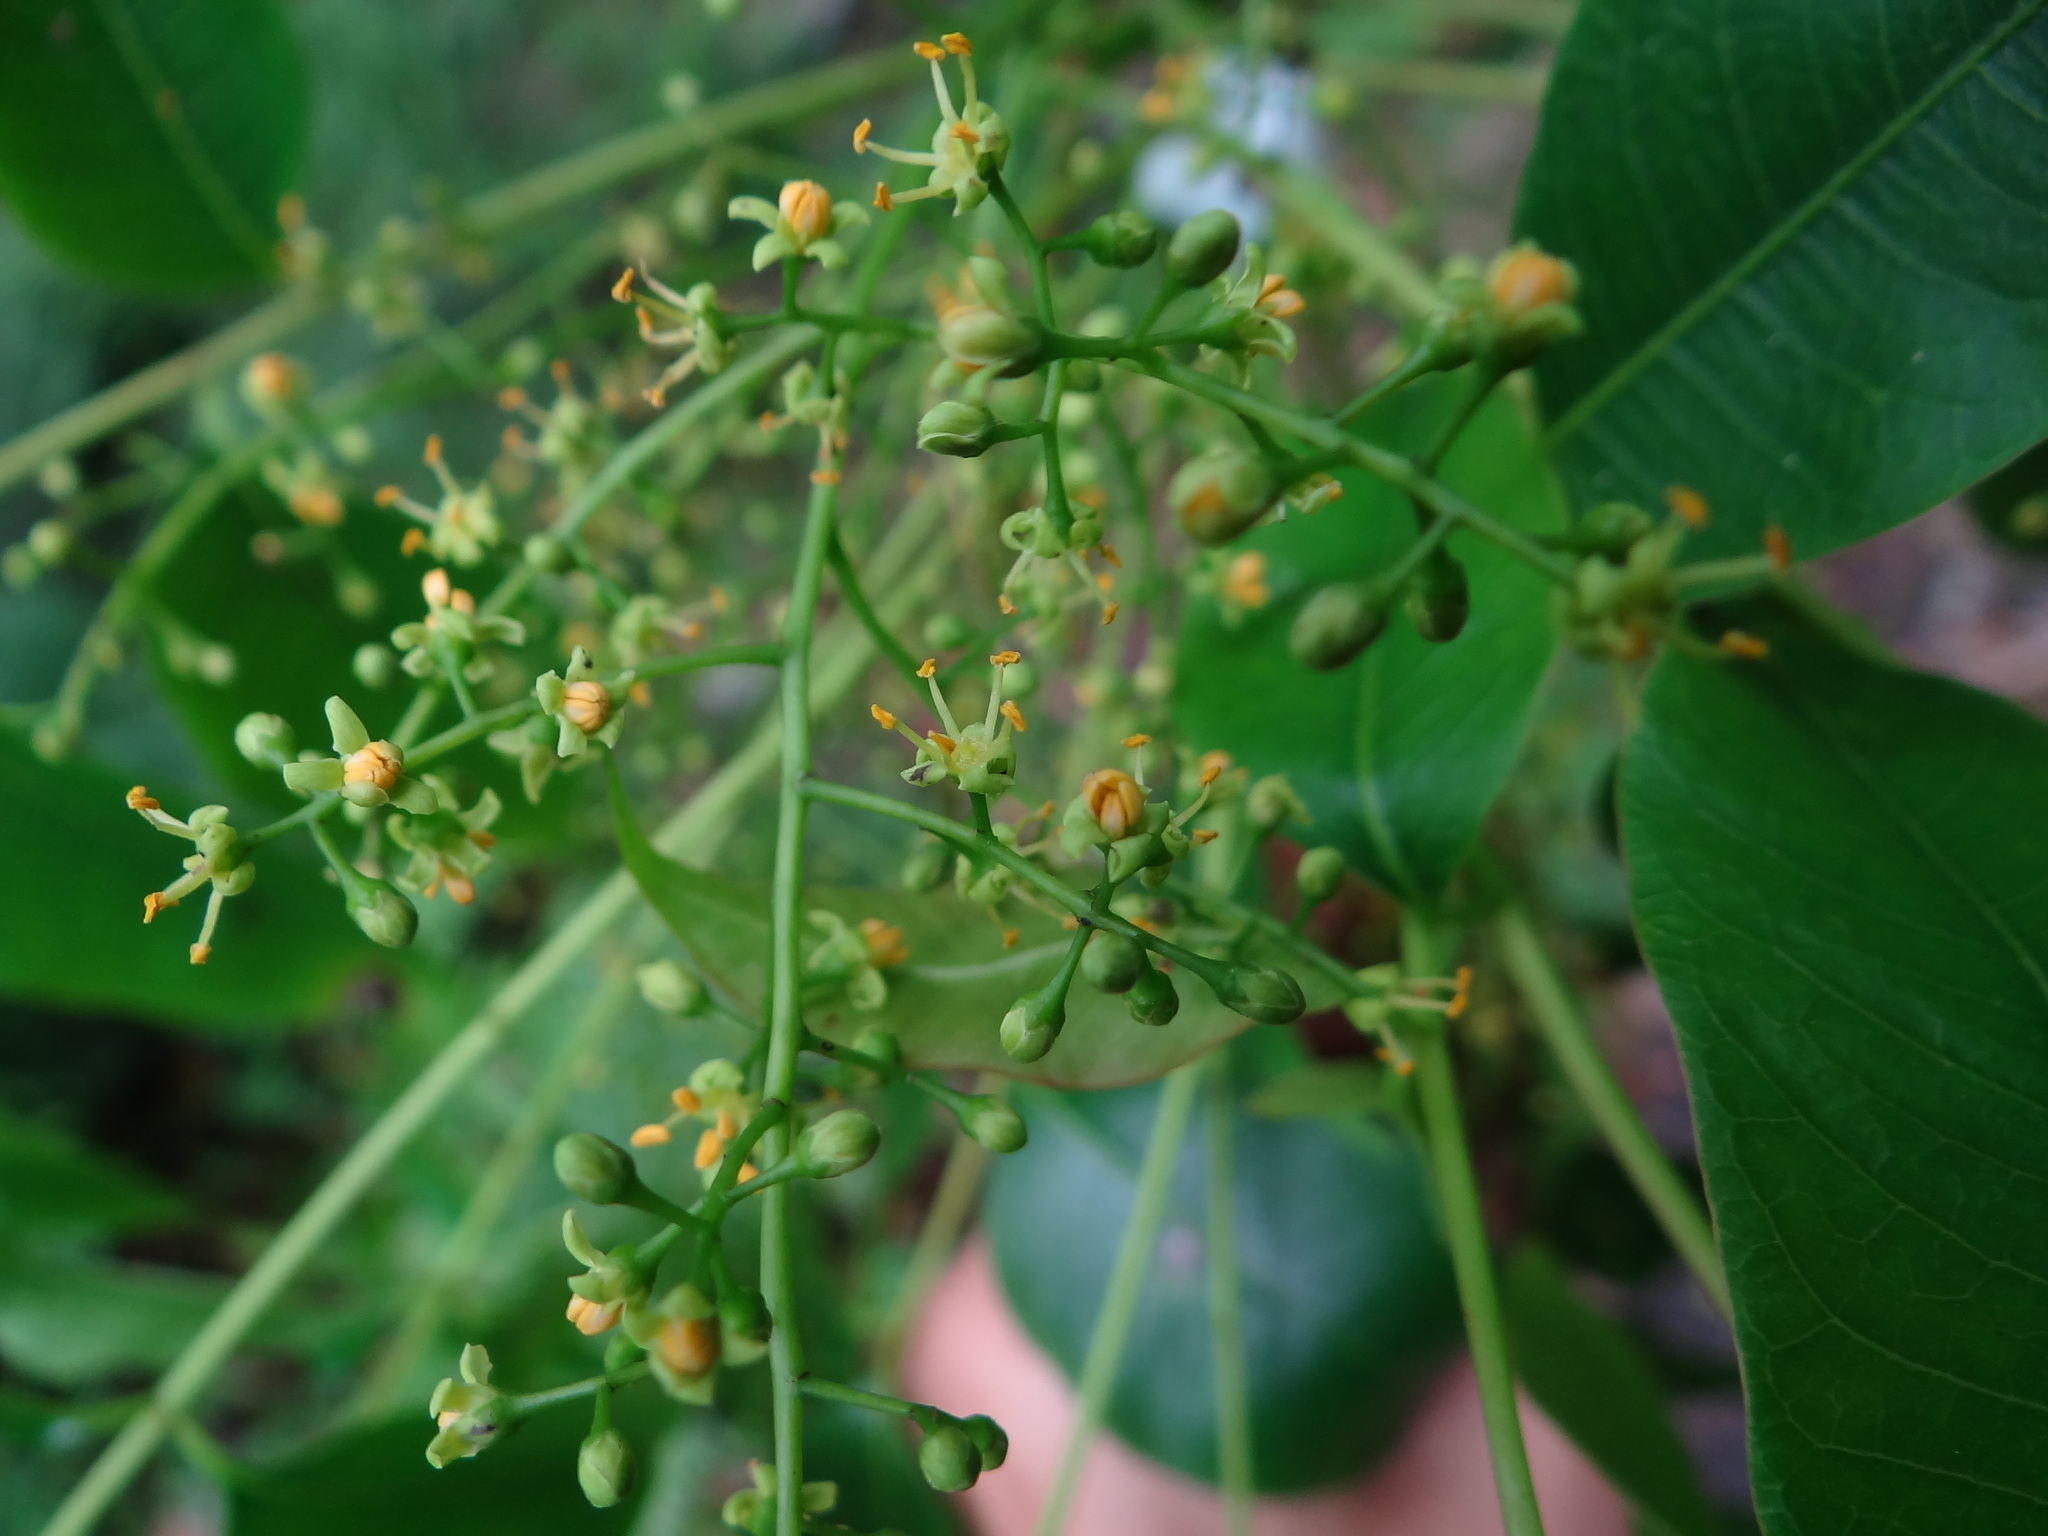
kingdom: Plantae
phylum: Tracheophyta
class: Magnoliopsida
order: Sapindales
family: Anacardiaceae
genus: Toxicodendron
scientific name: Toxicodendron succedaneum
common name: Wax tree
